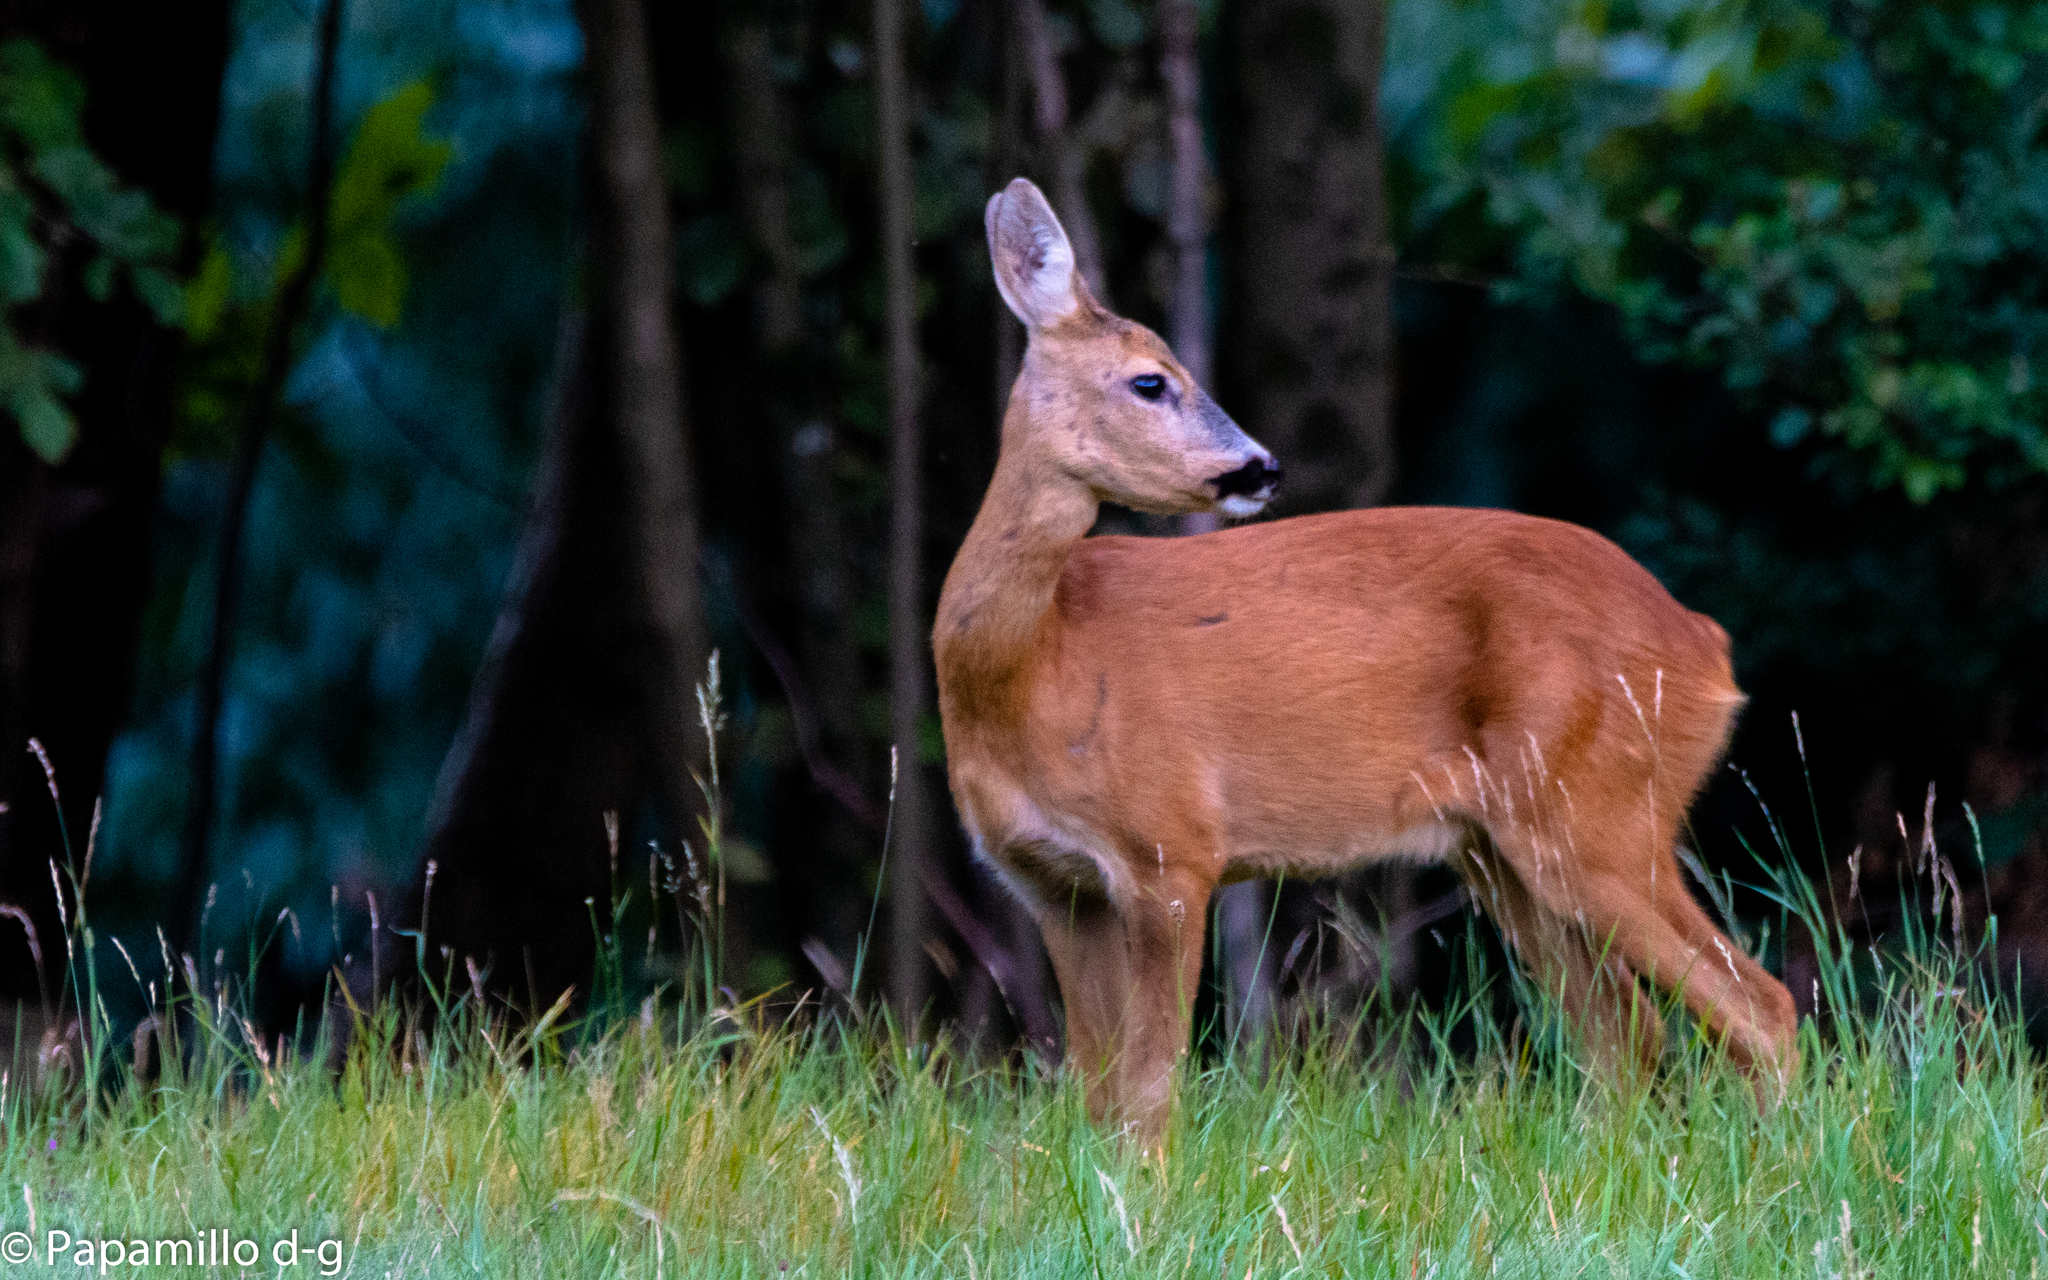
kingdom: Animalia
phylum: Chordata
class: Mammalia
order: Artiodactyla
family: Cervidae
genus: Capreolus
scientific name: Capreolus capreolus
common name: Western roe deer
